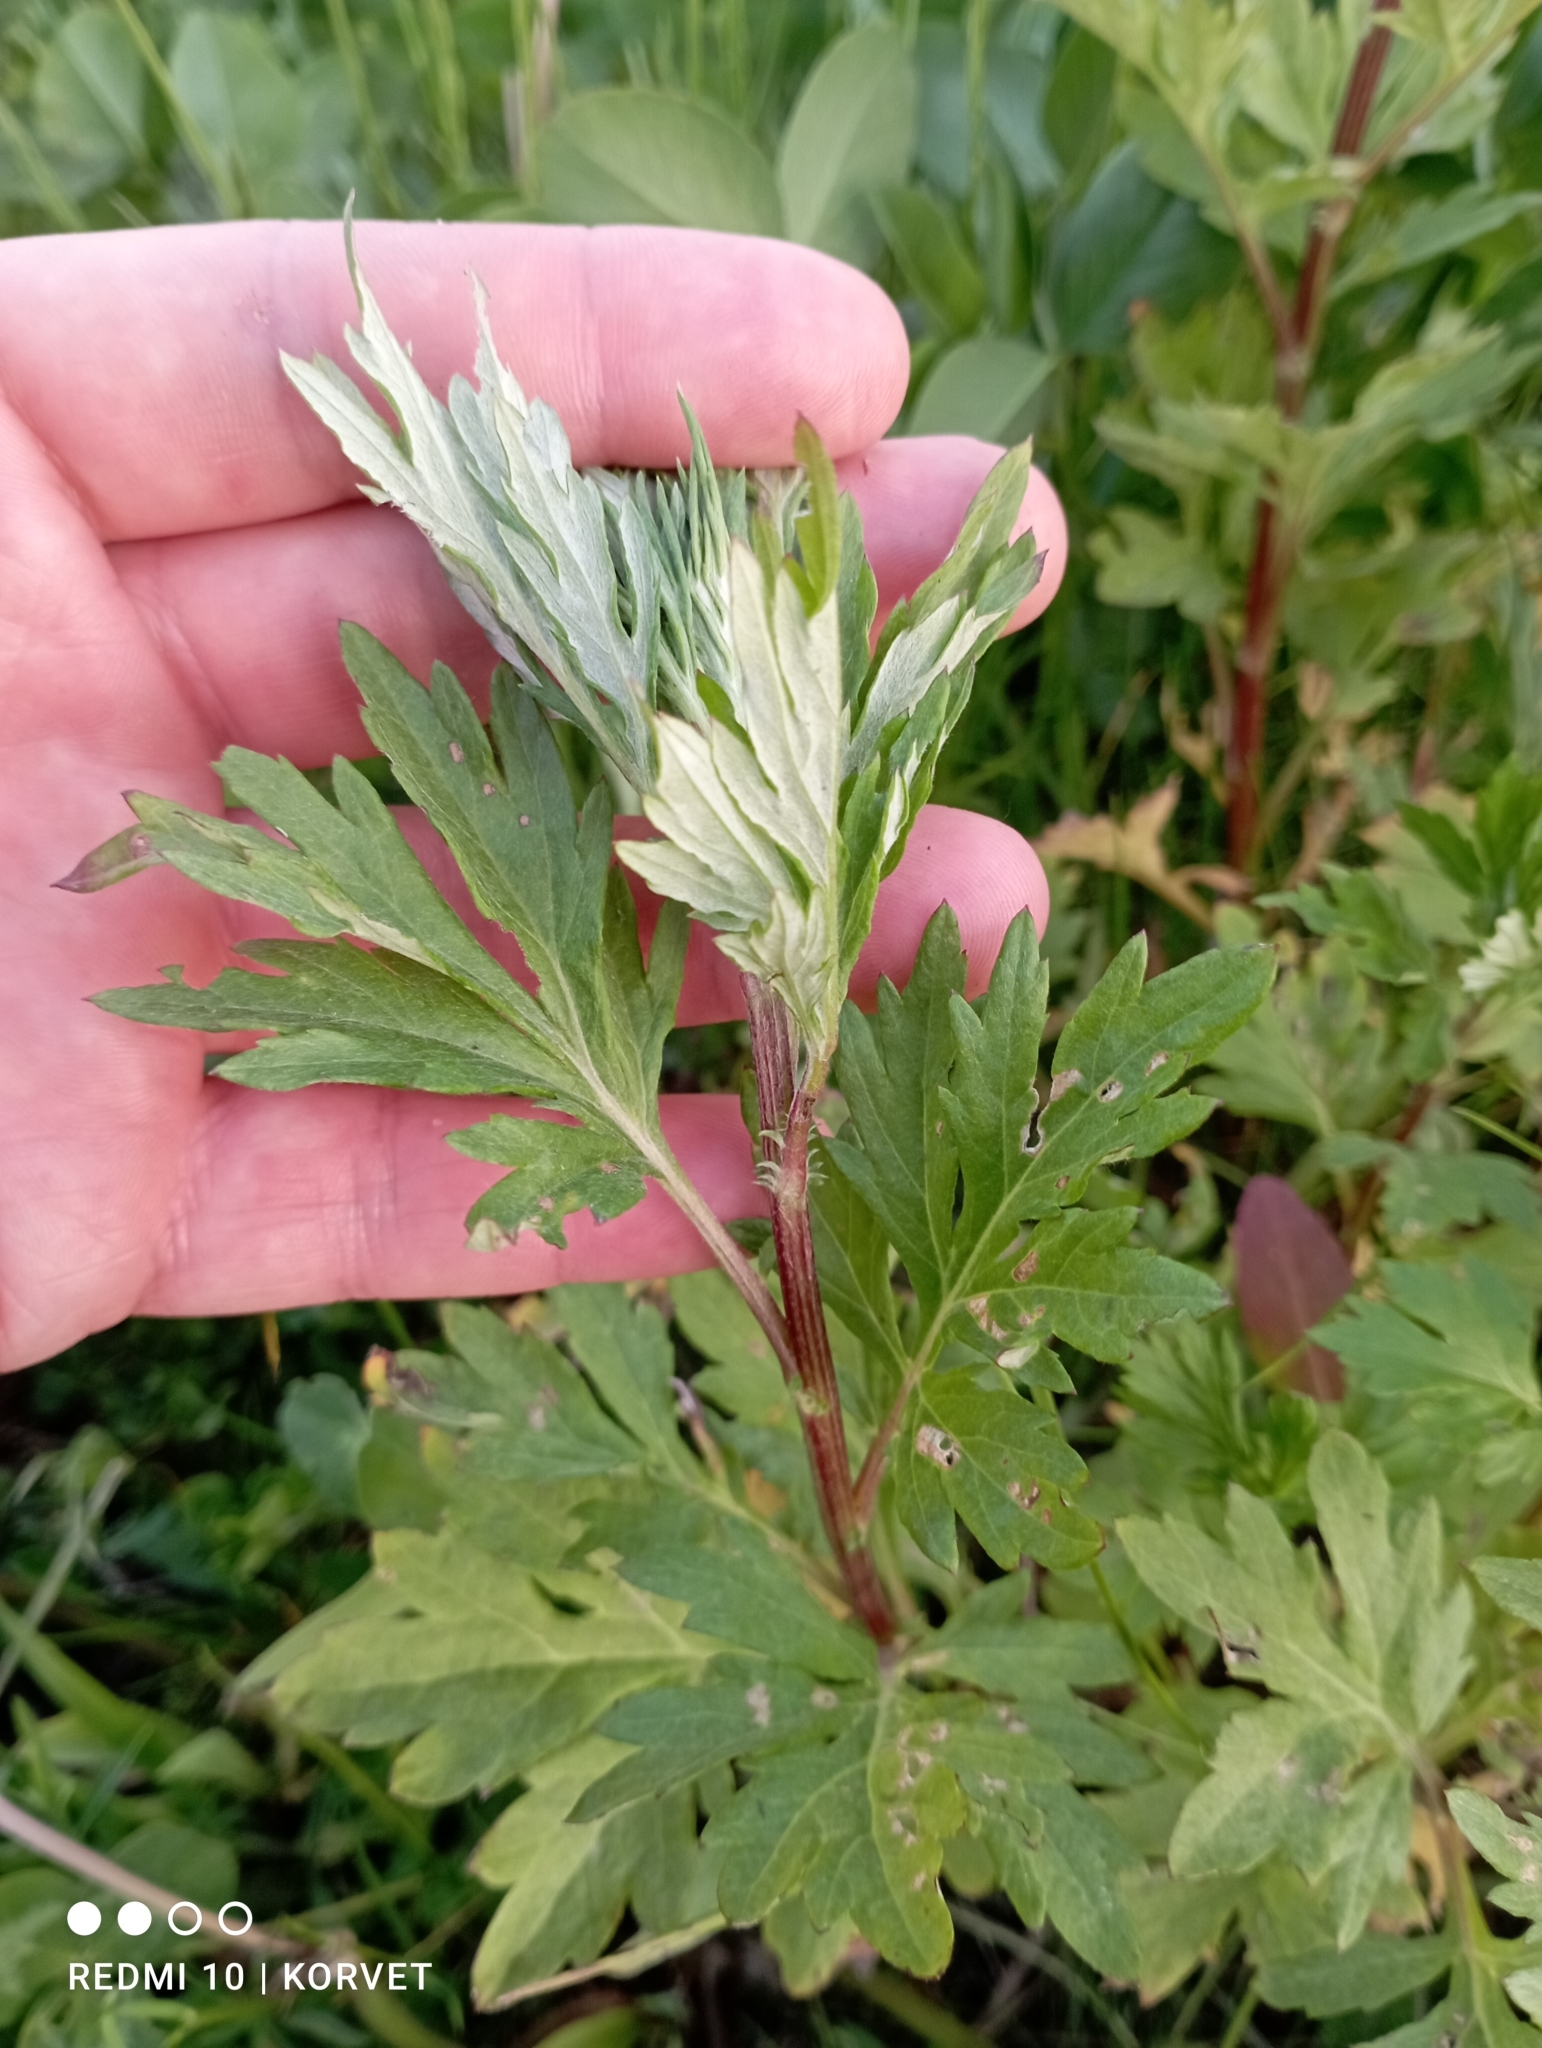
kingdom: Plantae
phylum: Tracheophyta
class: Magnoliopsida
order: Asterales
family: Asteraceae
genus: Artemisia
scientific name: Artemisia vulgaris
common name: Mugwort
